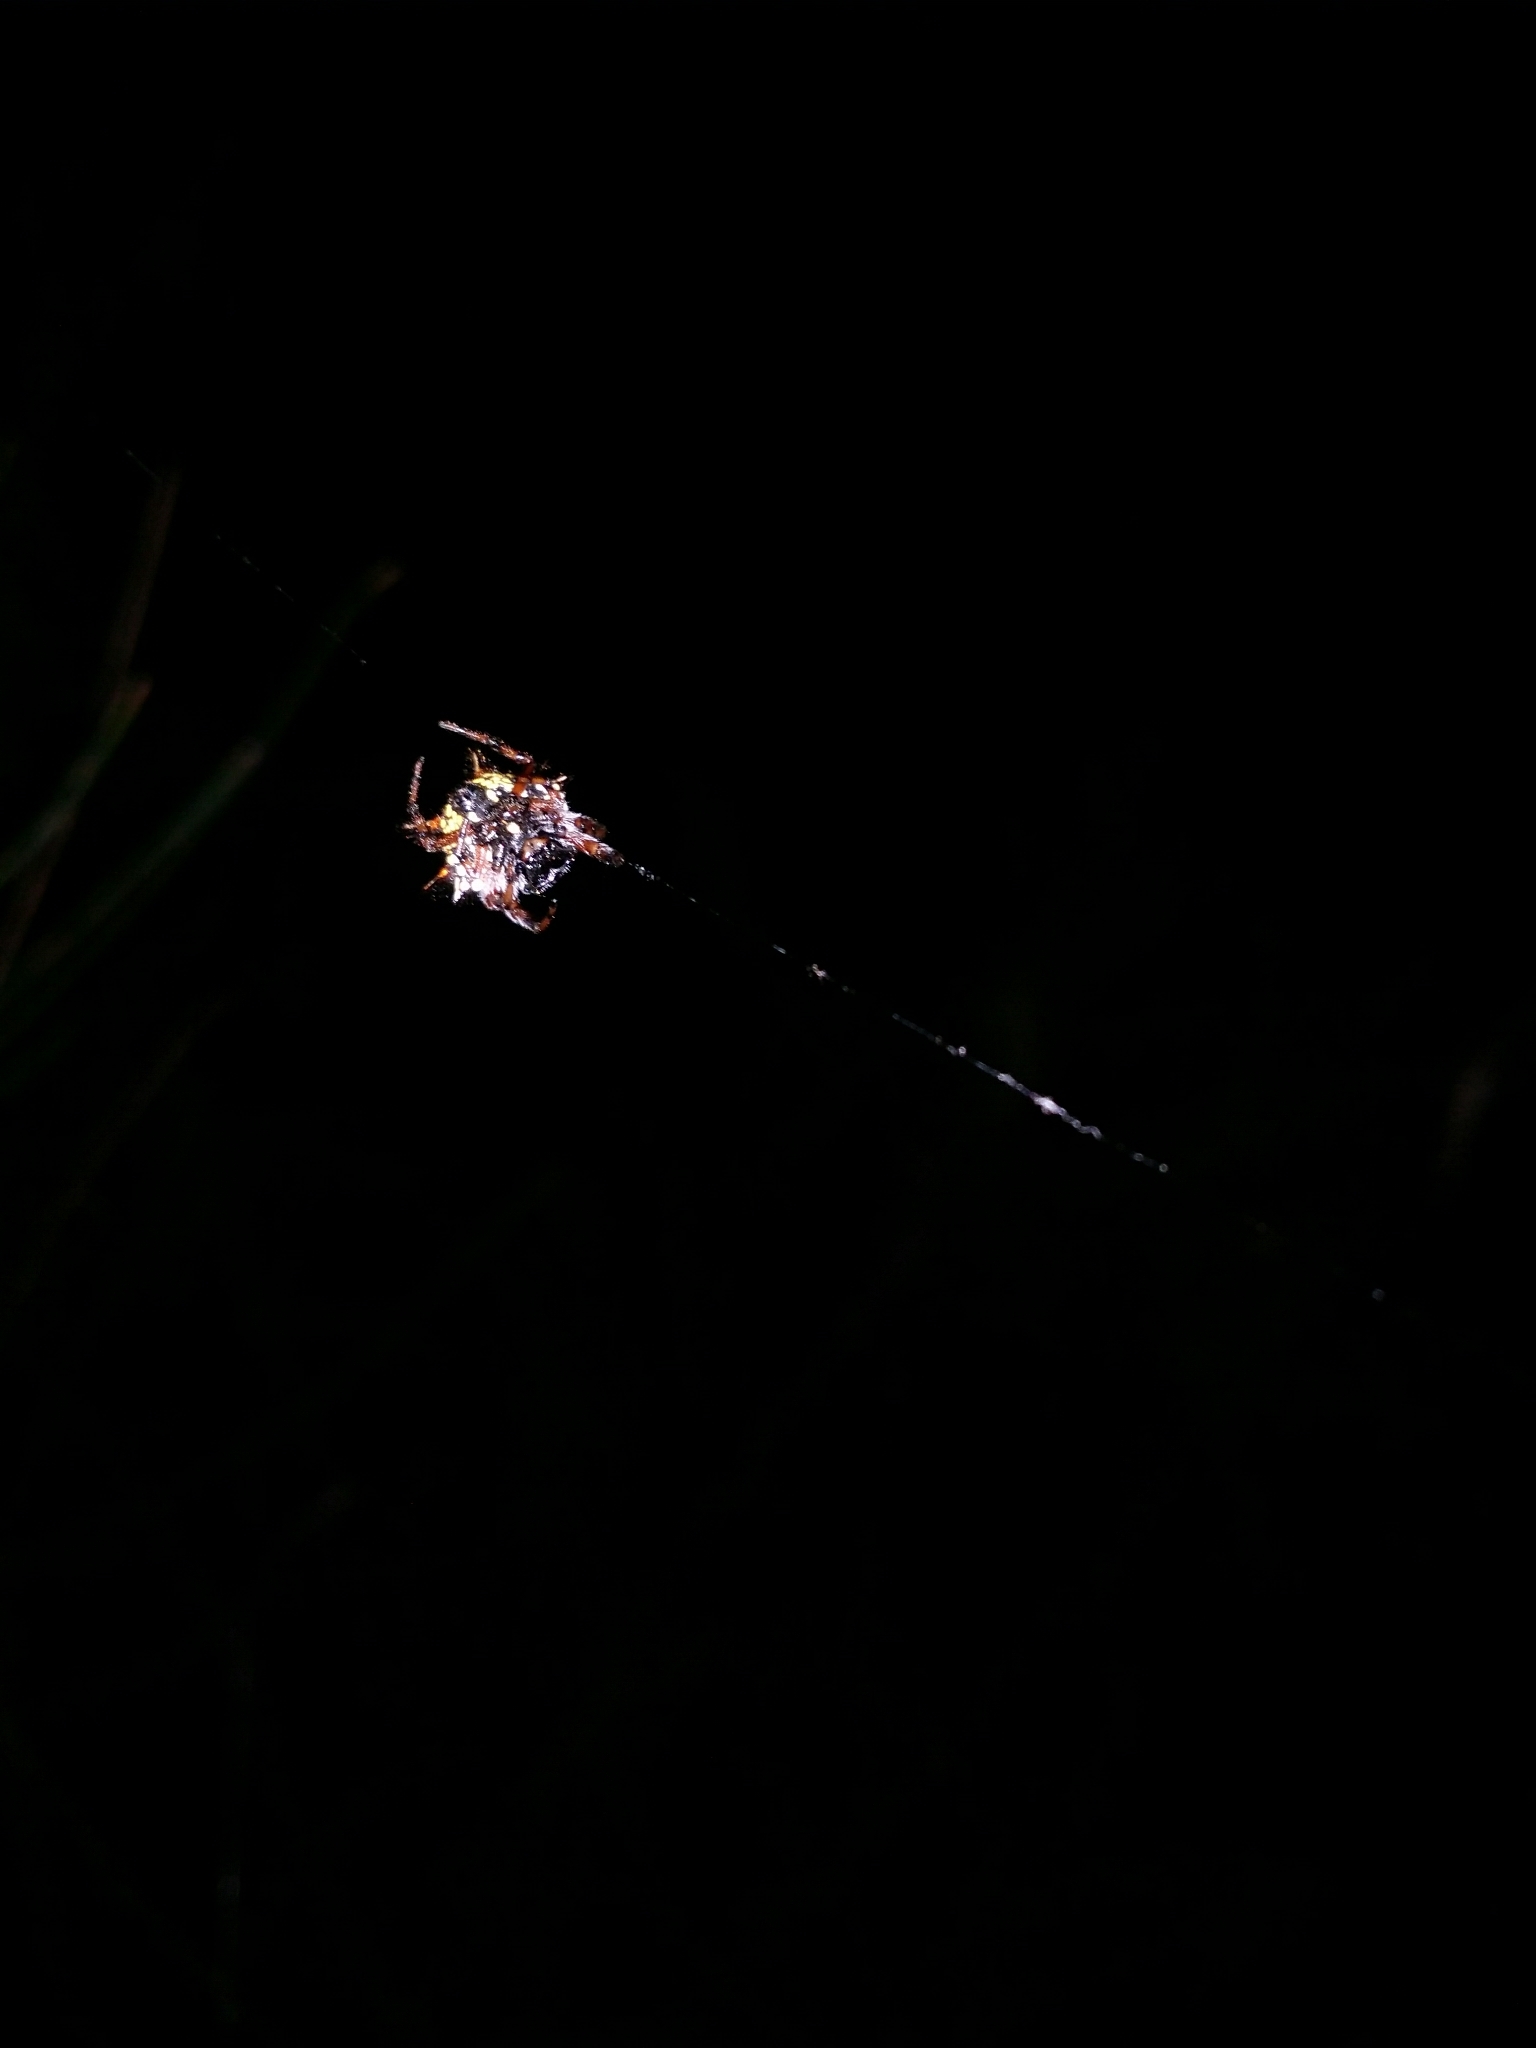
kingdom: Animalia
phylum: Arthropoda
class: Arachnida
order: Araneae
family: Araneidae
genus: Austracantha
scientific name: Austracantha minax
